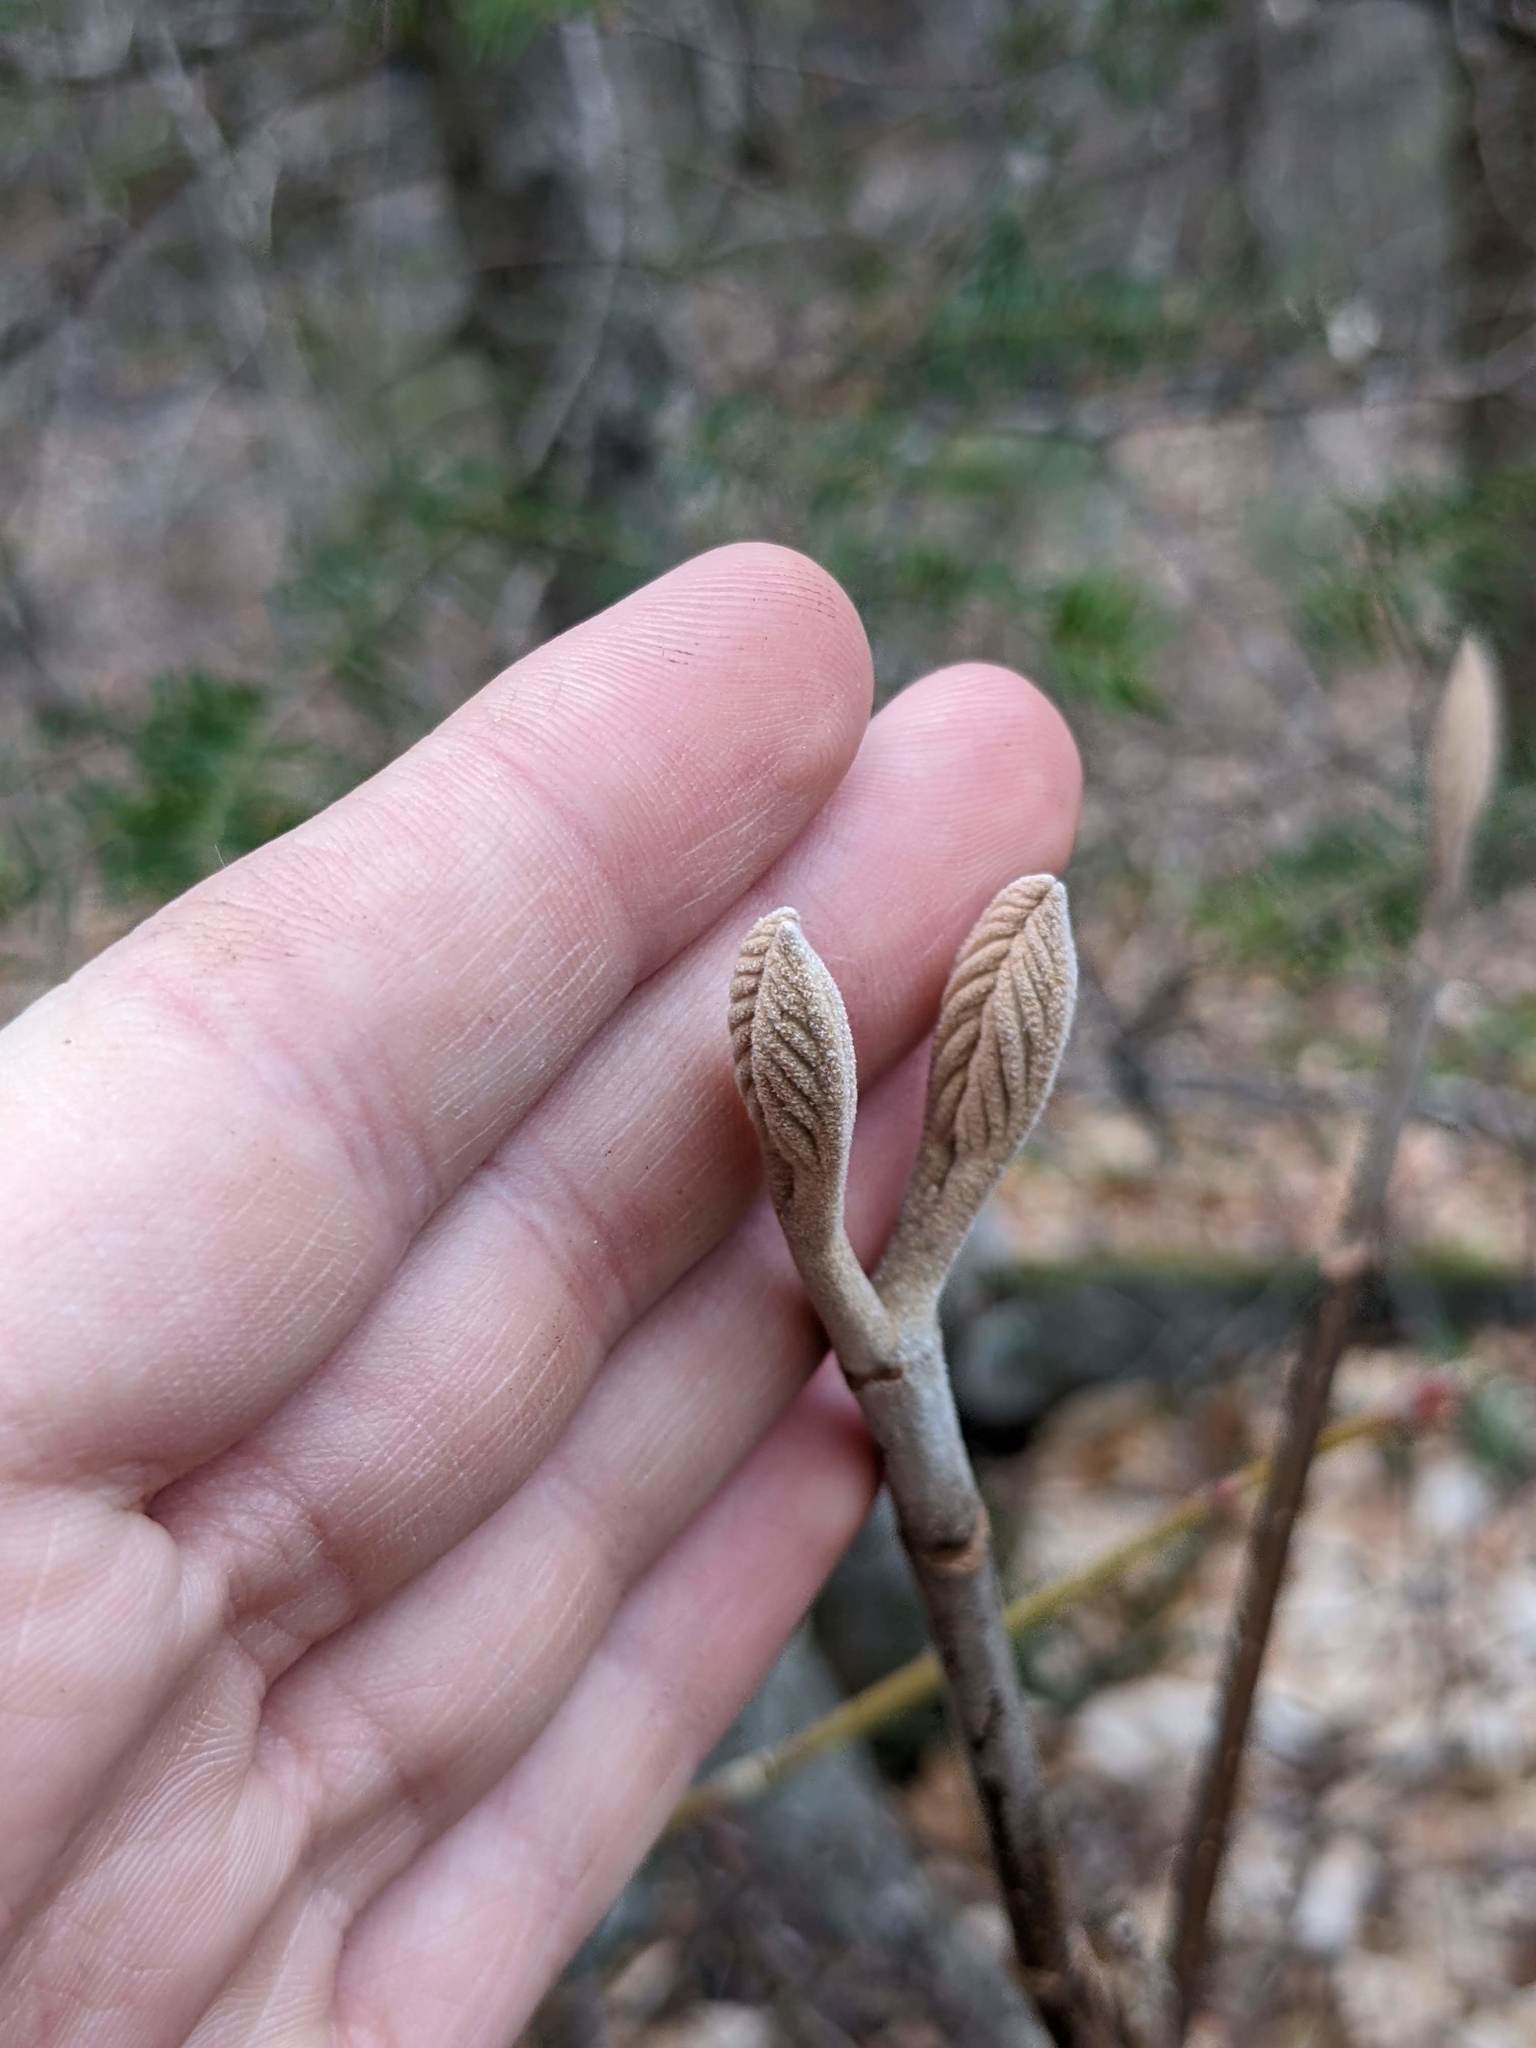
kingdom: Plantae
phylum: Tracheophyta
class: Magnoliopsida
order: Dipsacales
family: Viburnaceae
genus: Viburnum
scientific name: Viburnum lantanoides
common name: Hobblebush
